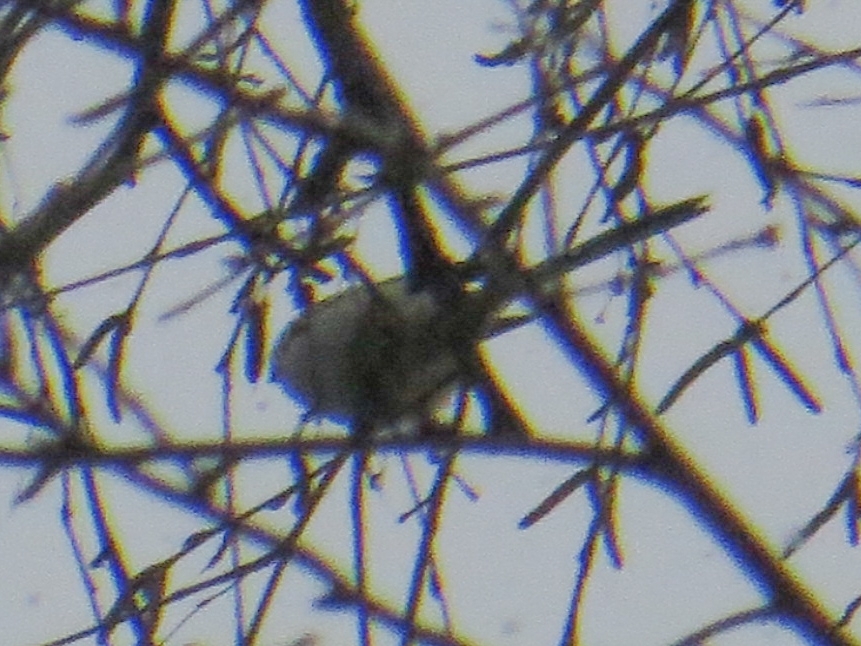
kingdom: Animalia
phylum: Chordata
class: Aves
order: Passeriformes
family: Aegithalidae
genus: Aegithalos
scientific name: Aegithalos caudatus
